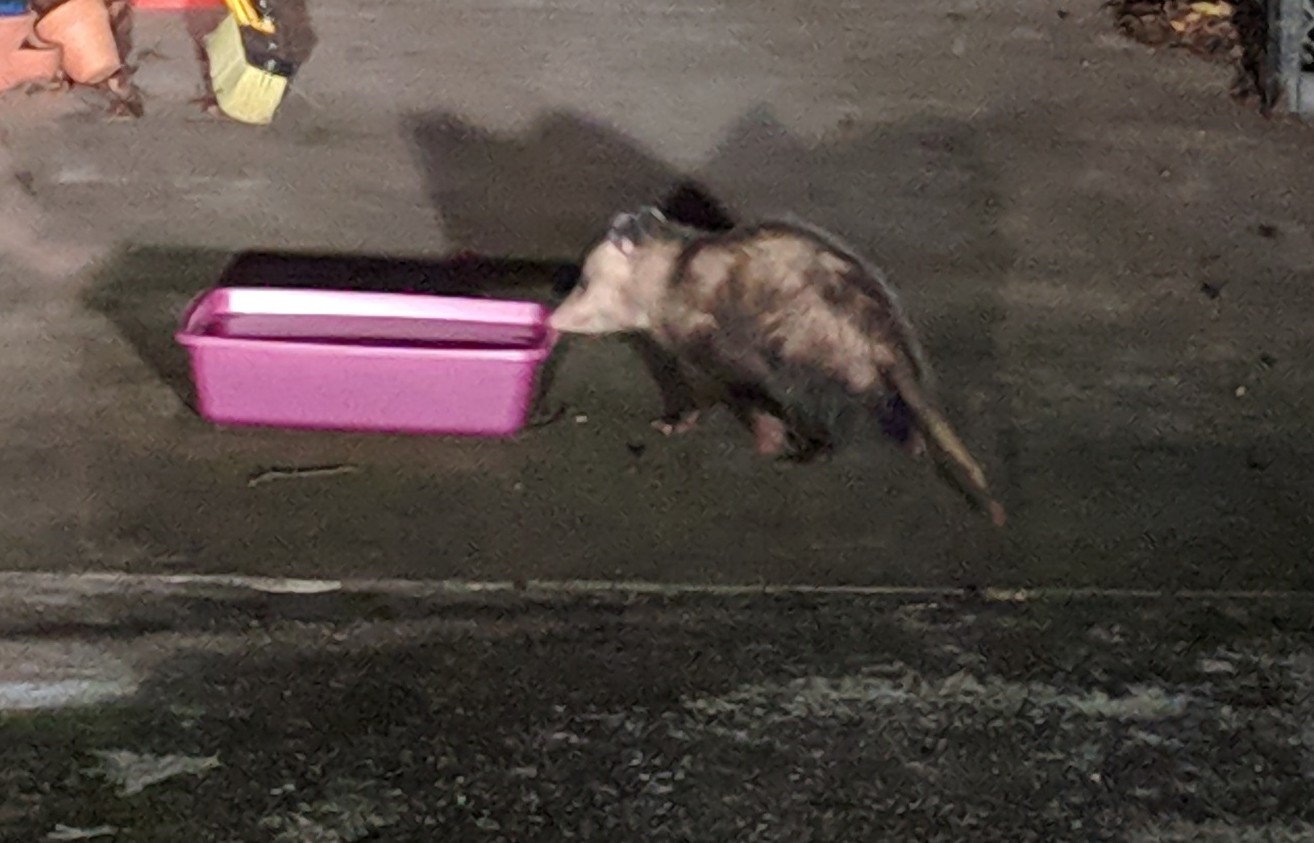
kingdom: Animalia
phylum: Chordata
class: Mammalia
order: Didelphimorphia
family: Didelphidae
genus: Didelphis
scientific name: Didelphis virginiana
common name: Virginia opossum
